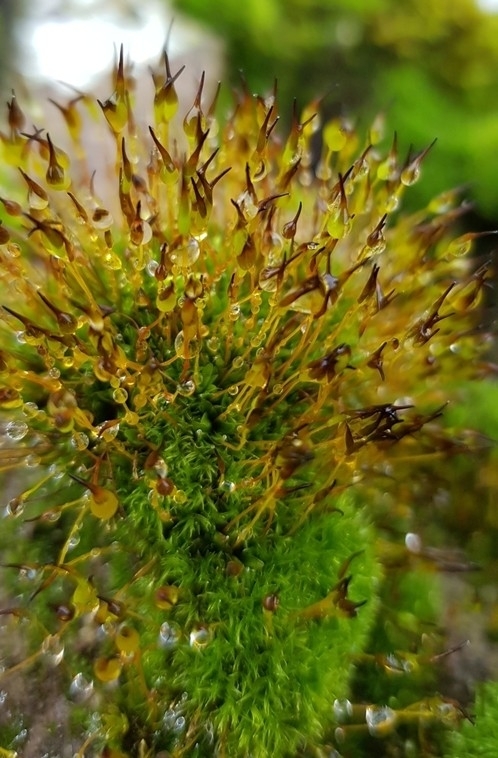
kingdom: Plantae
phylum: Bryophyta
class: Bryopsida
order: Pottiales
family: Pottiaceae
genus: Tortula
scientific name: Tortula muralis
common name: Wall screw-moss
